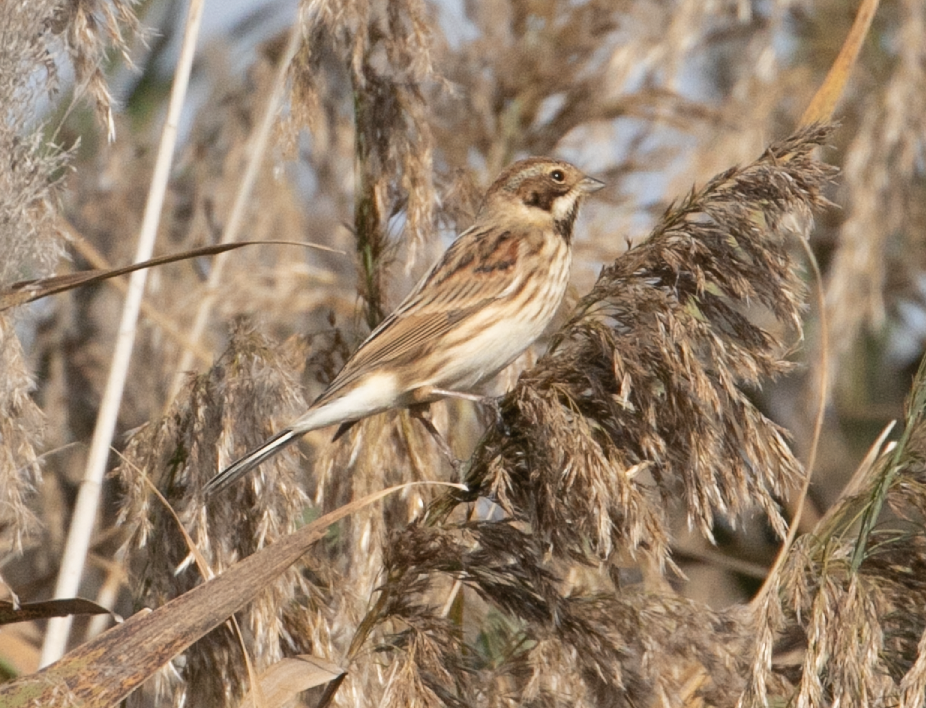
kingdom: Animalia
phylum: Chordata
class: Aves
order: Passeriformes
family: Emberizidae
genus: Emberiza
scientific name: Emberiza schoeniclus
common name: Reed bunting
